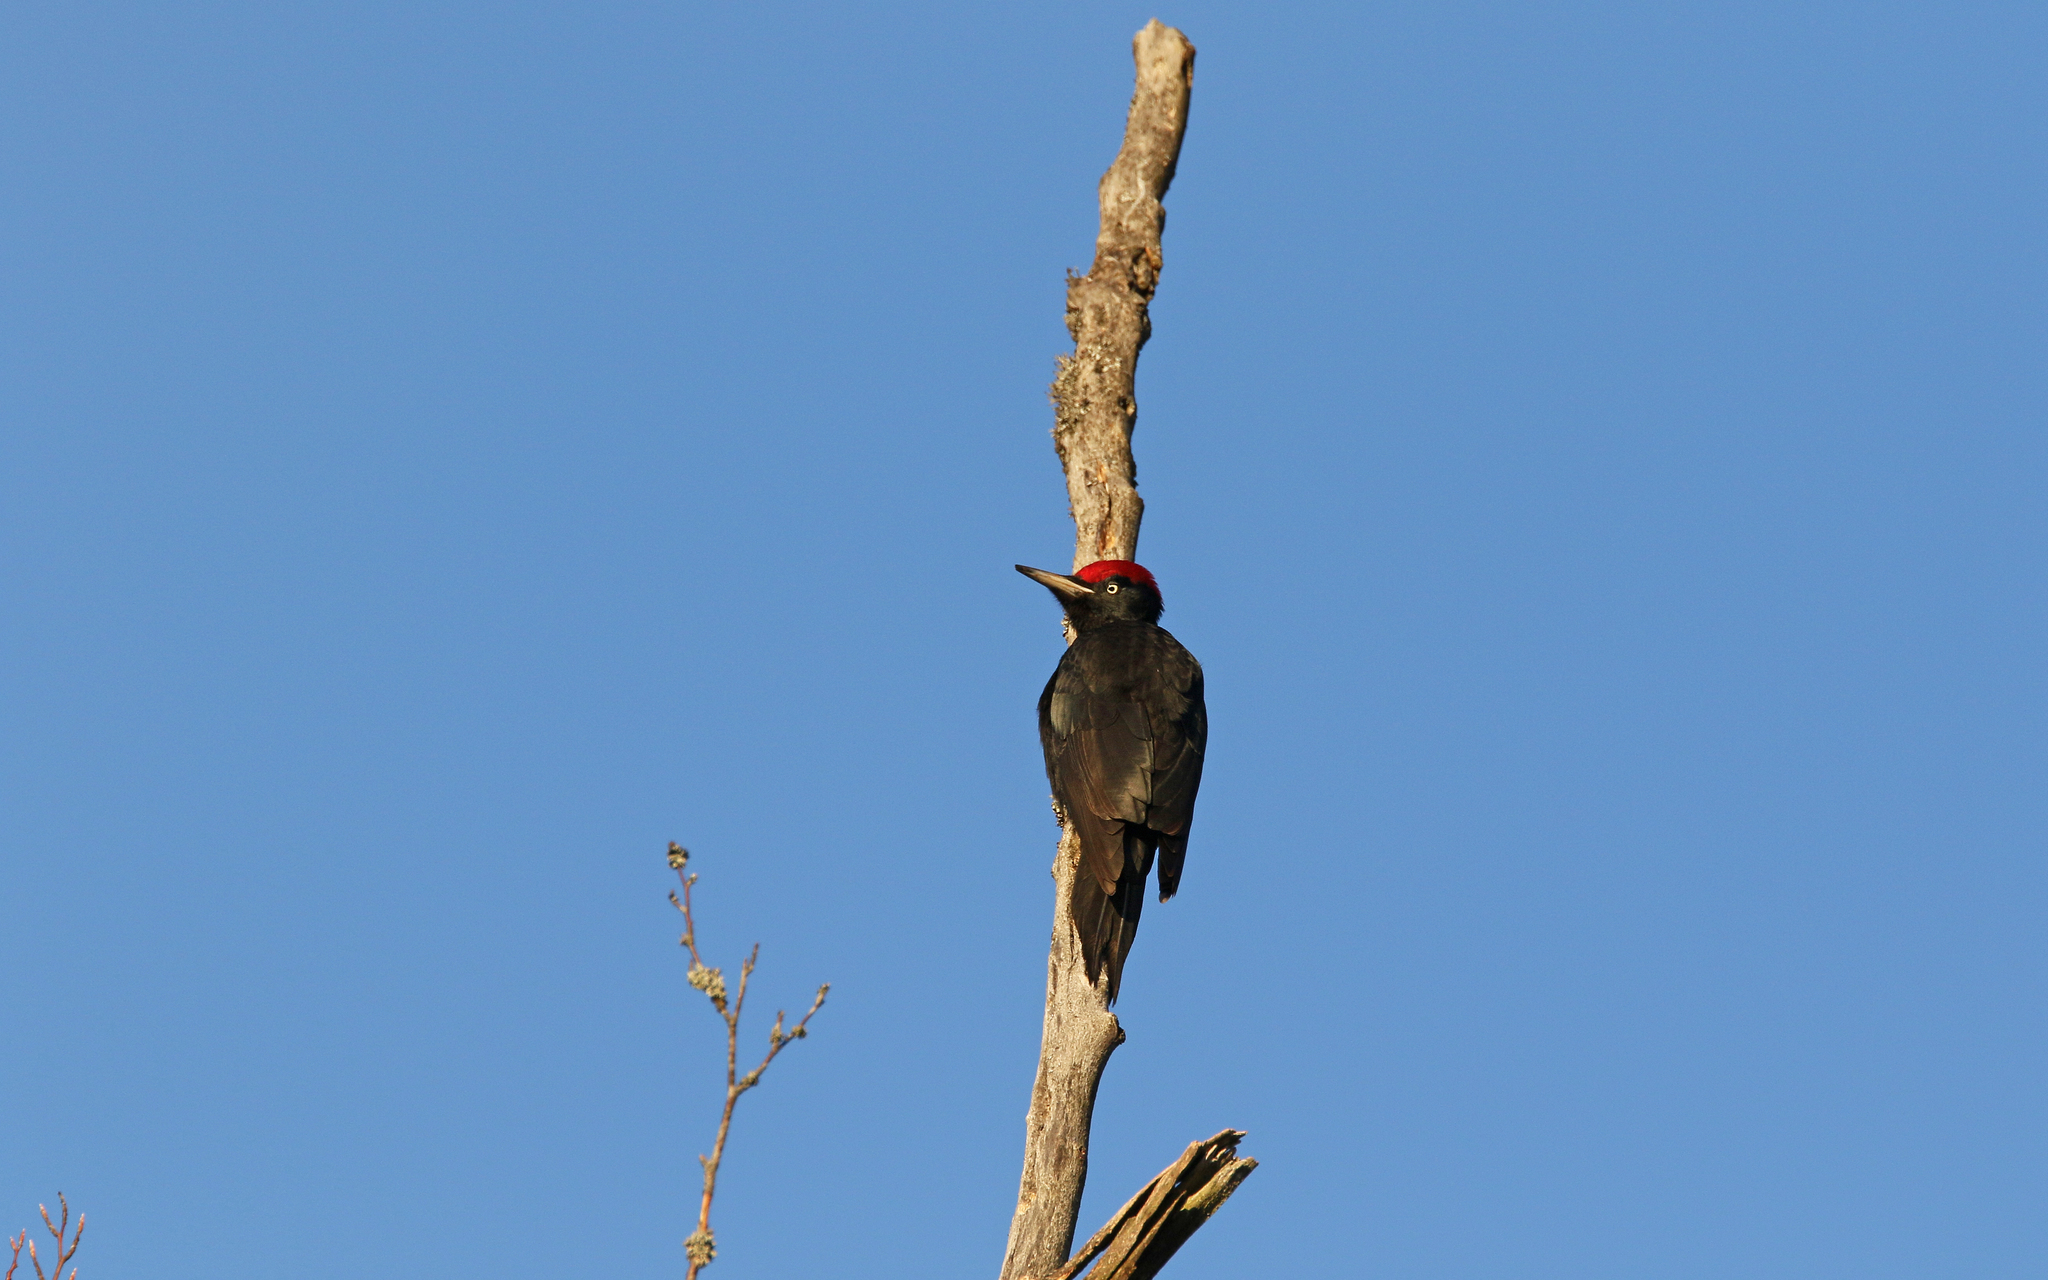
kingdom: Animalia
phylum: Chordata
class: Aves
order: Piciformes
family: Picidae
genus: Dryocopus
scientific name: Dryocopus martius
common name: Black woodpecker
